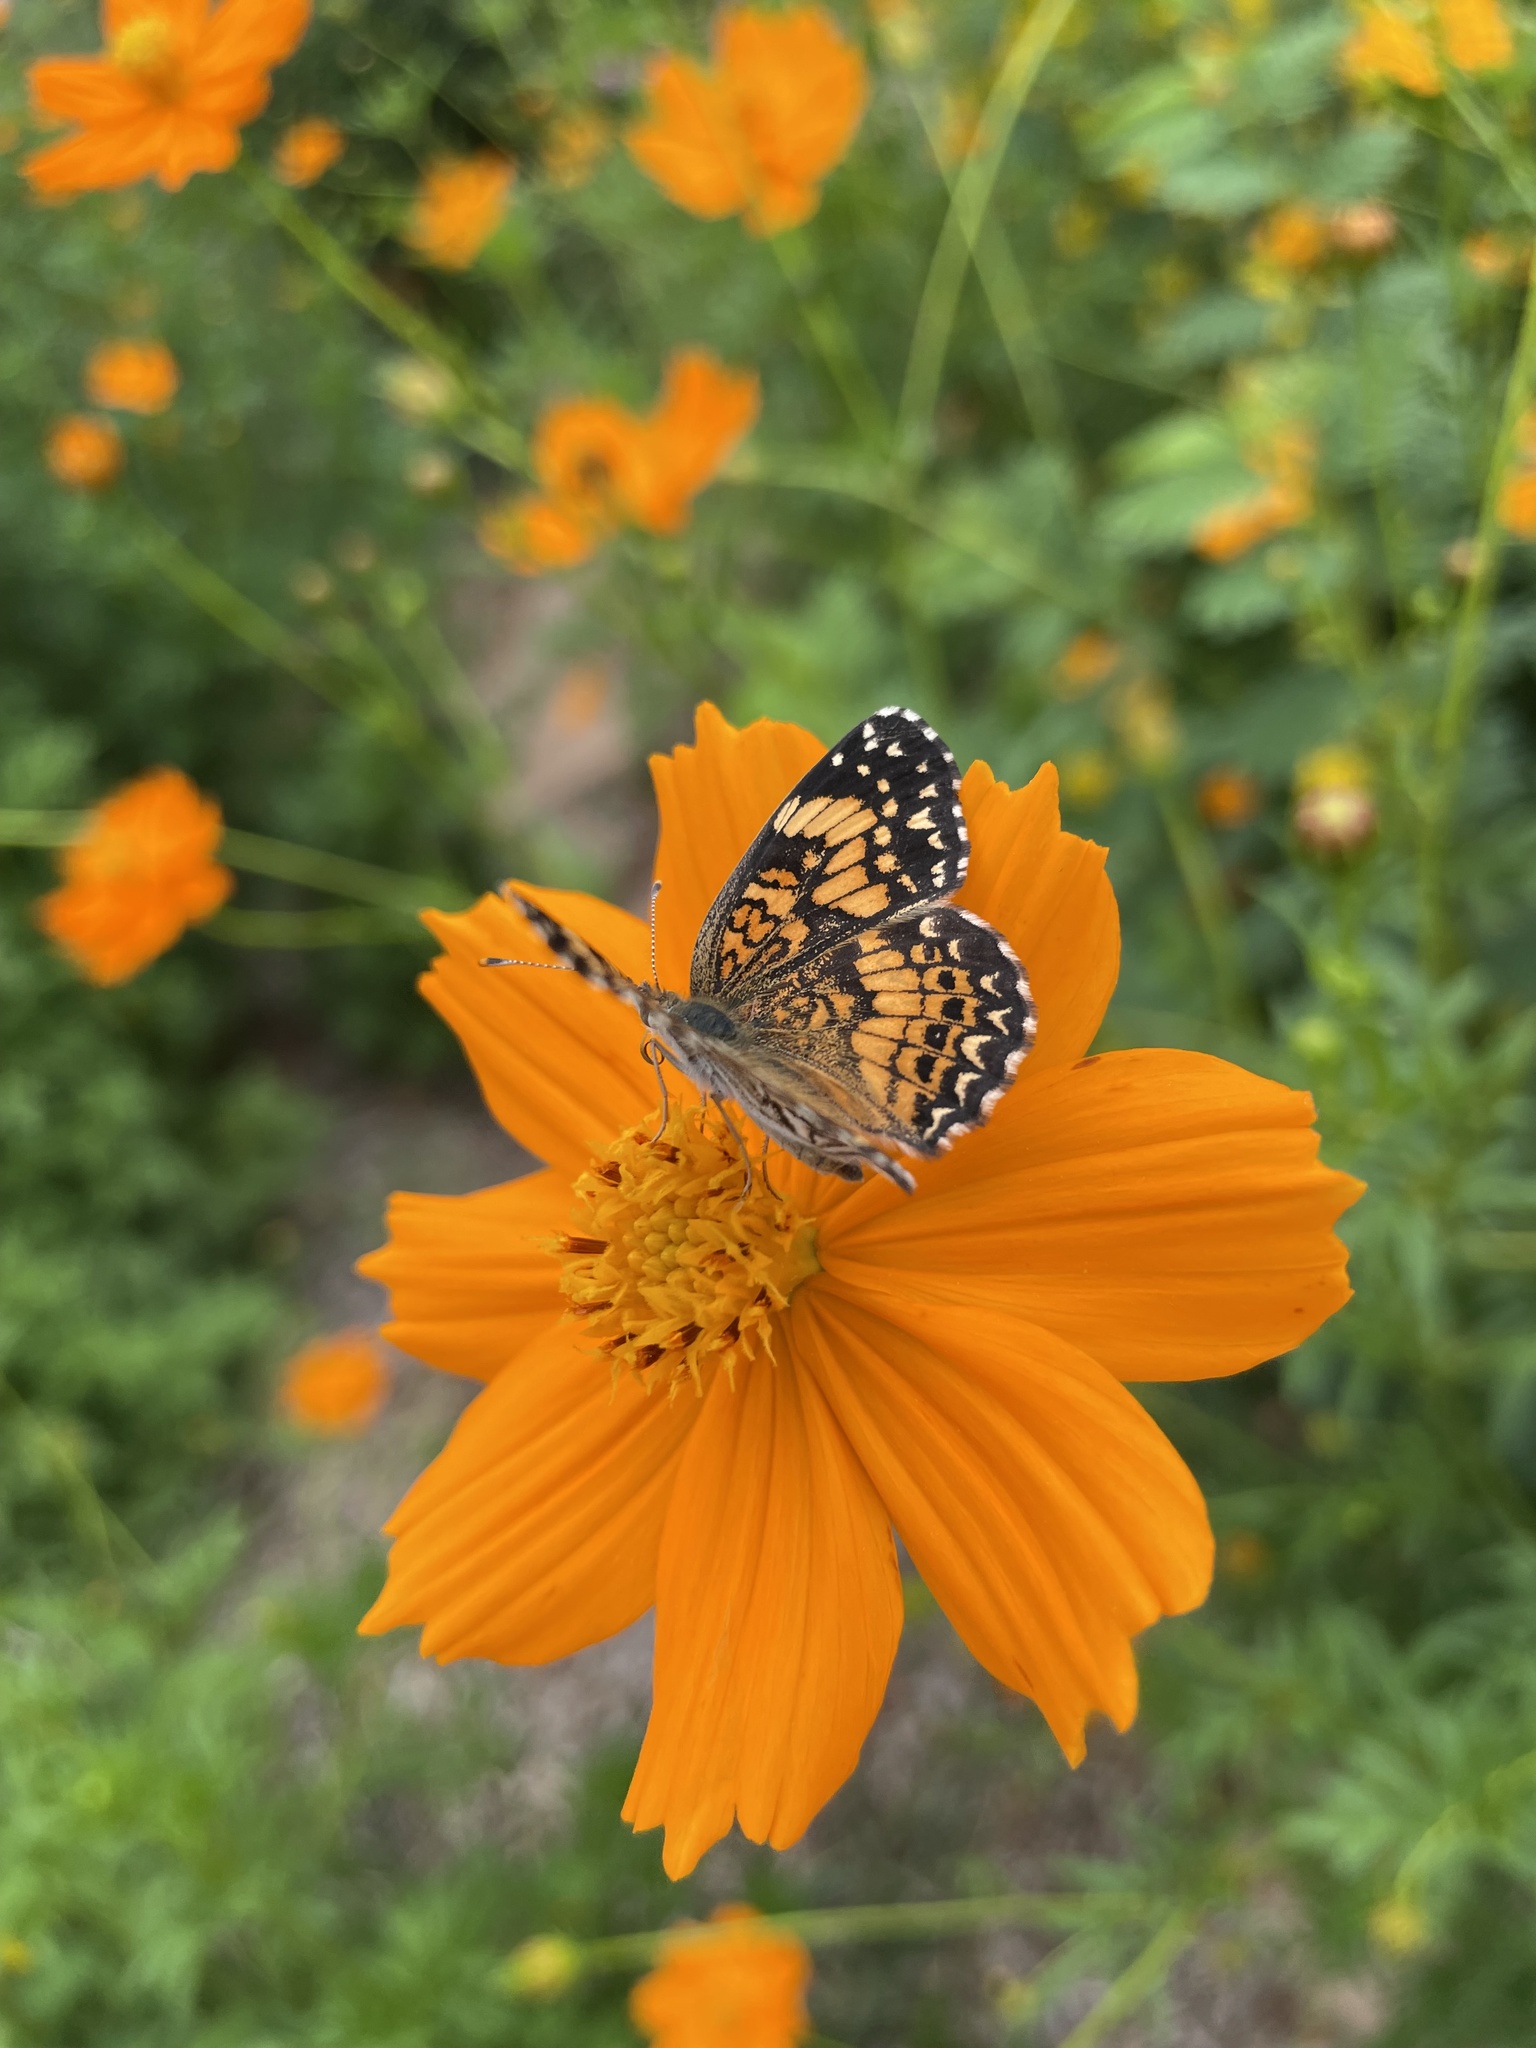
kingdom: Animalia
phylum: Arthropoda
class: Insecta
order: Lepidoptera
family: Nymphalidae
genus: Chlosyne
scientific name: Chlosyne gorgone
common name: Gorgone checkerspot
